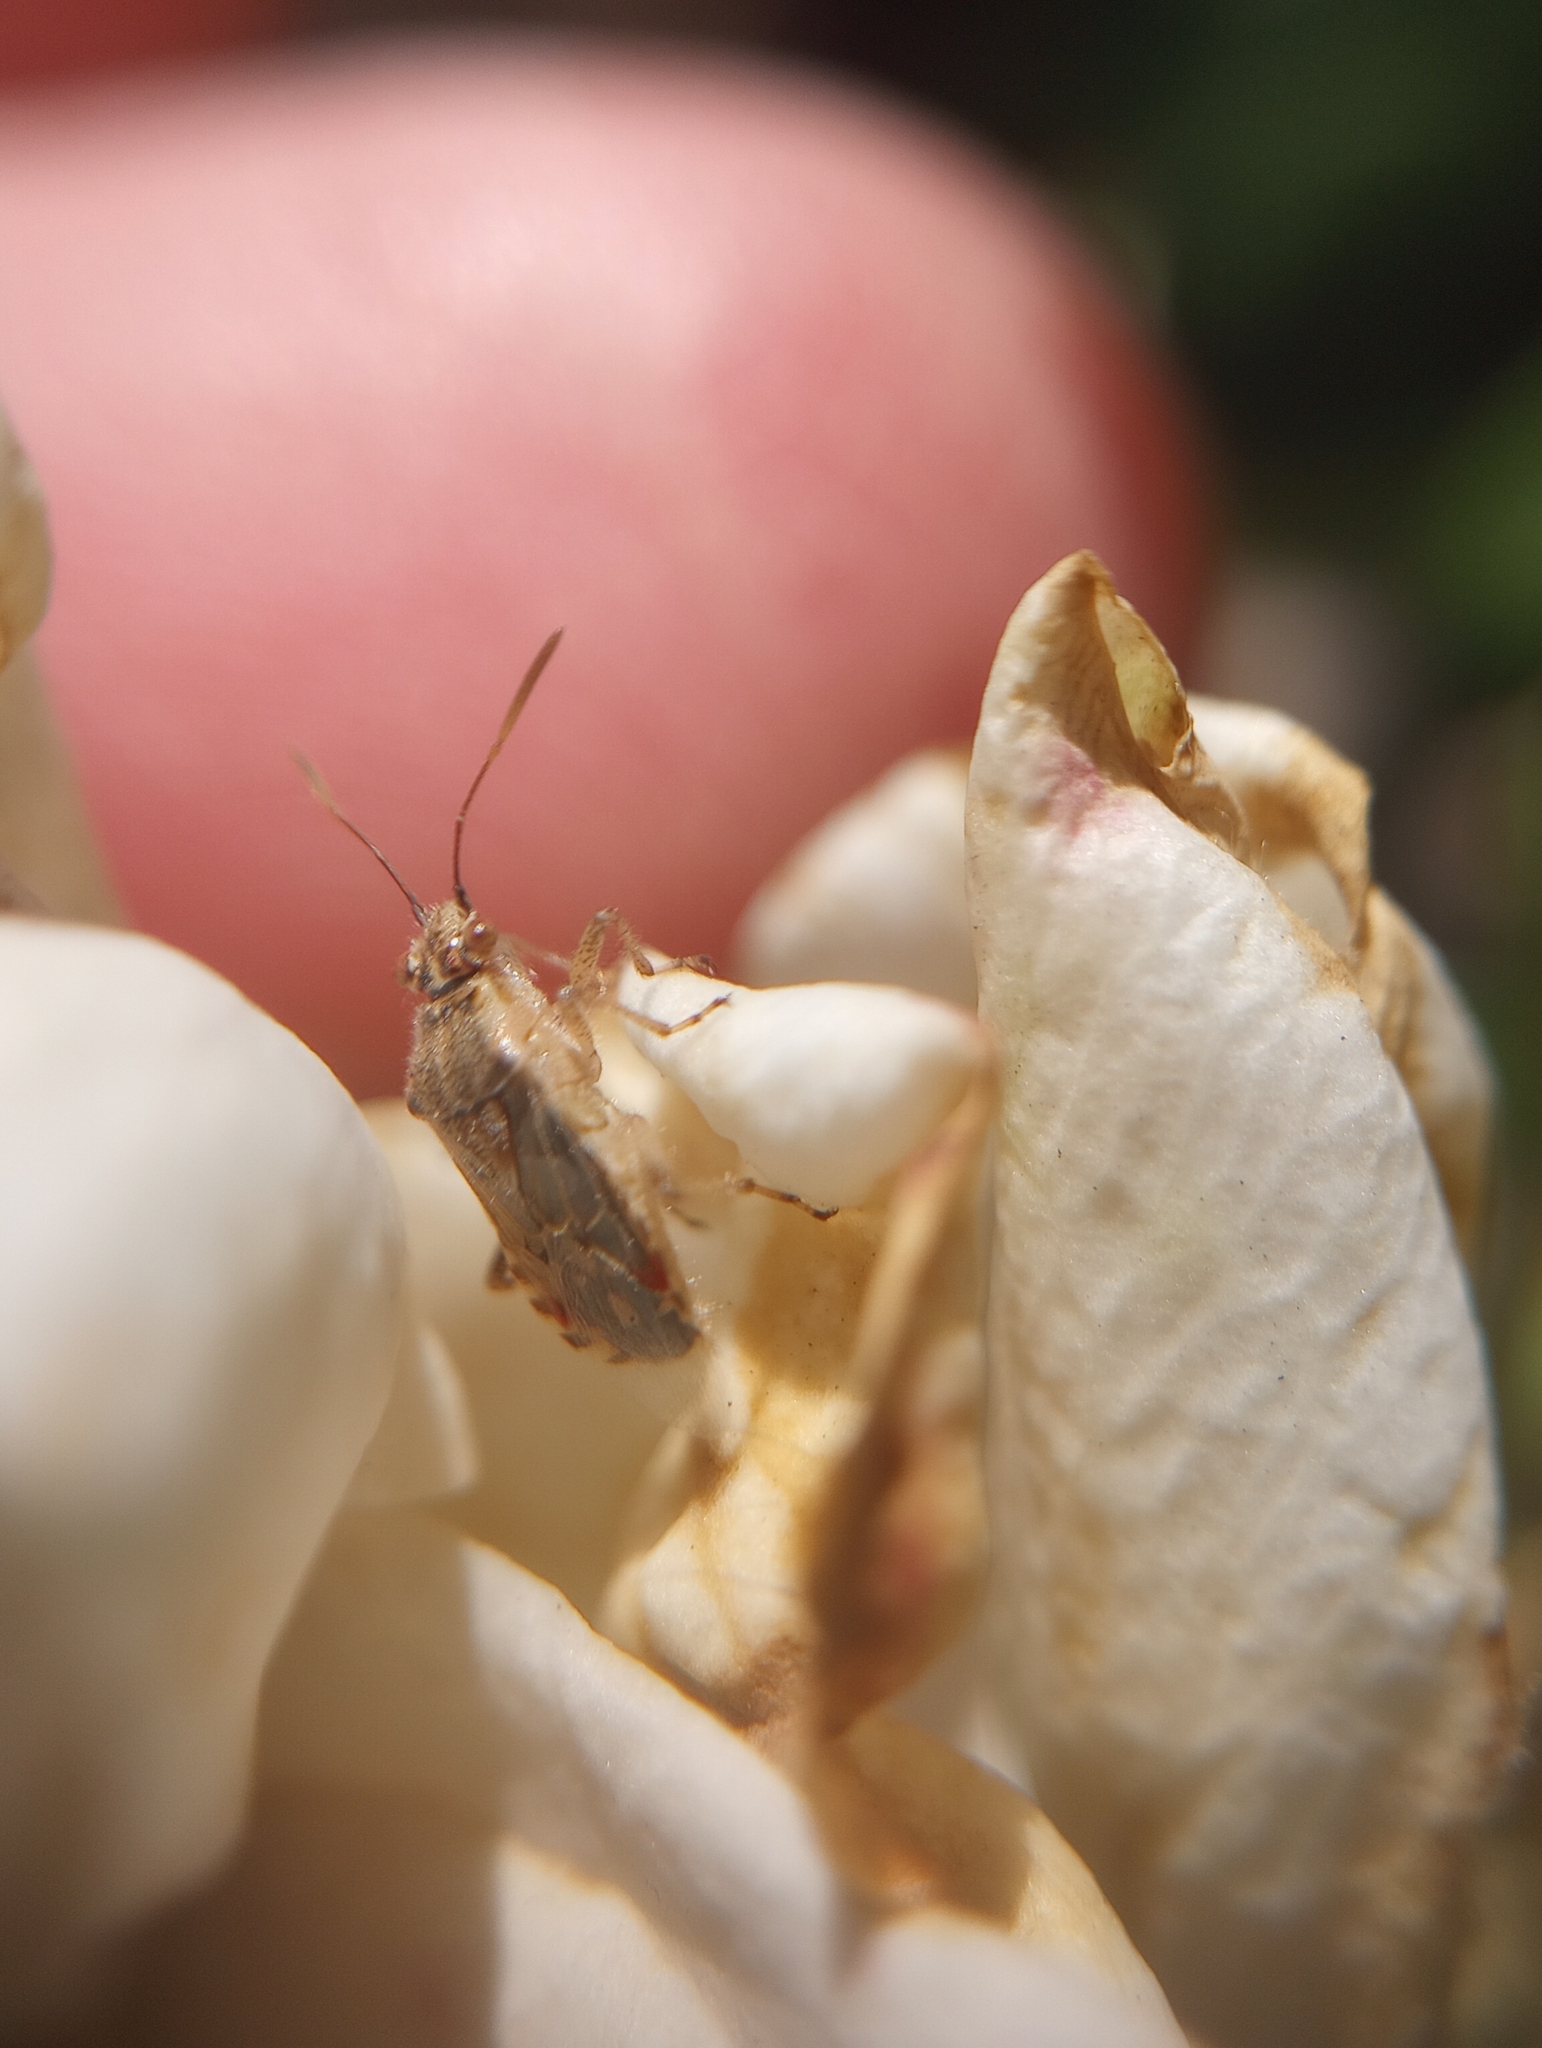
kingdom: Animalia
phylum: Arthropoda
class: Insecta
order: Hemiptera
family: Rhopalidae
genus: Liorhyssus
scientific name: Liorhyssus hyalinus
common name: Scentless plant bug
